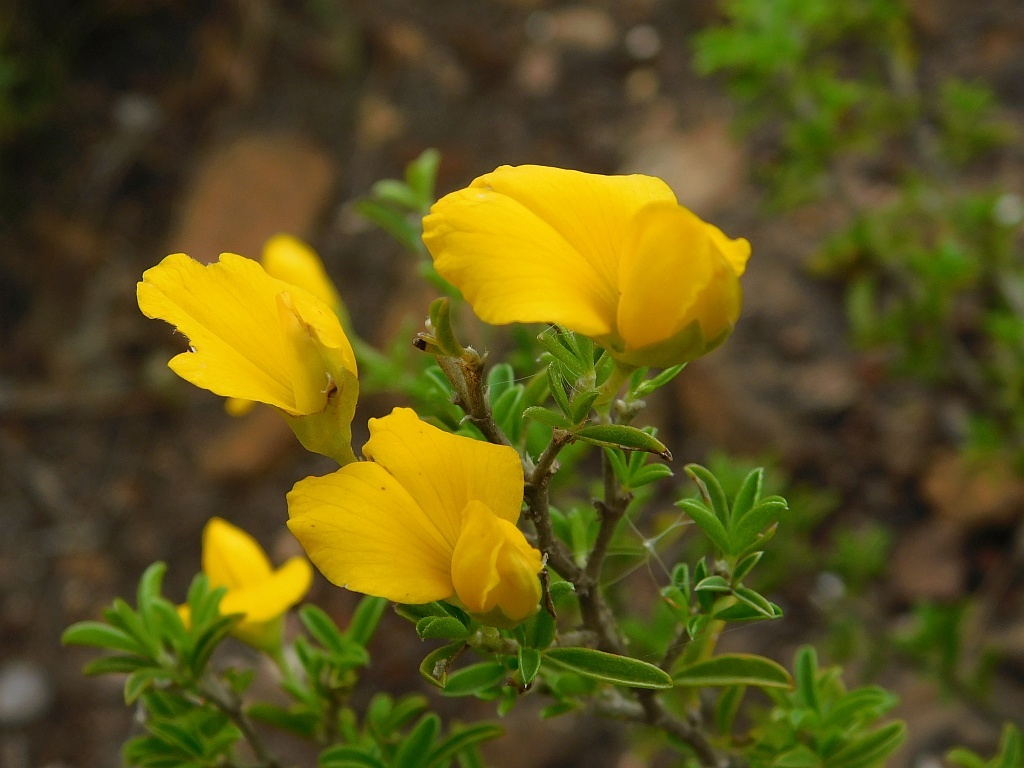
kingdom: Plantae
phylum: Tracheophyta
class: Magnoliopsida
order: Fabales
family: Fabaceae
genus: Argyrolobium
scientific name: Argyrolobium pachyphyllum
